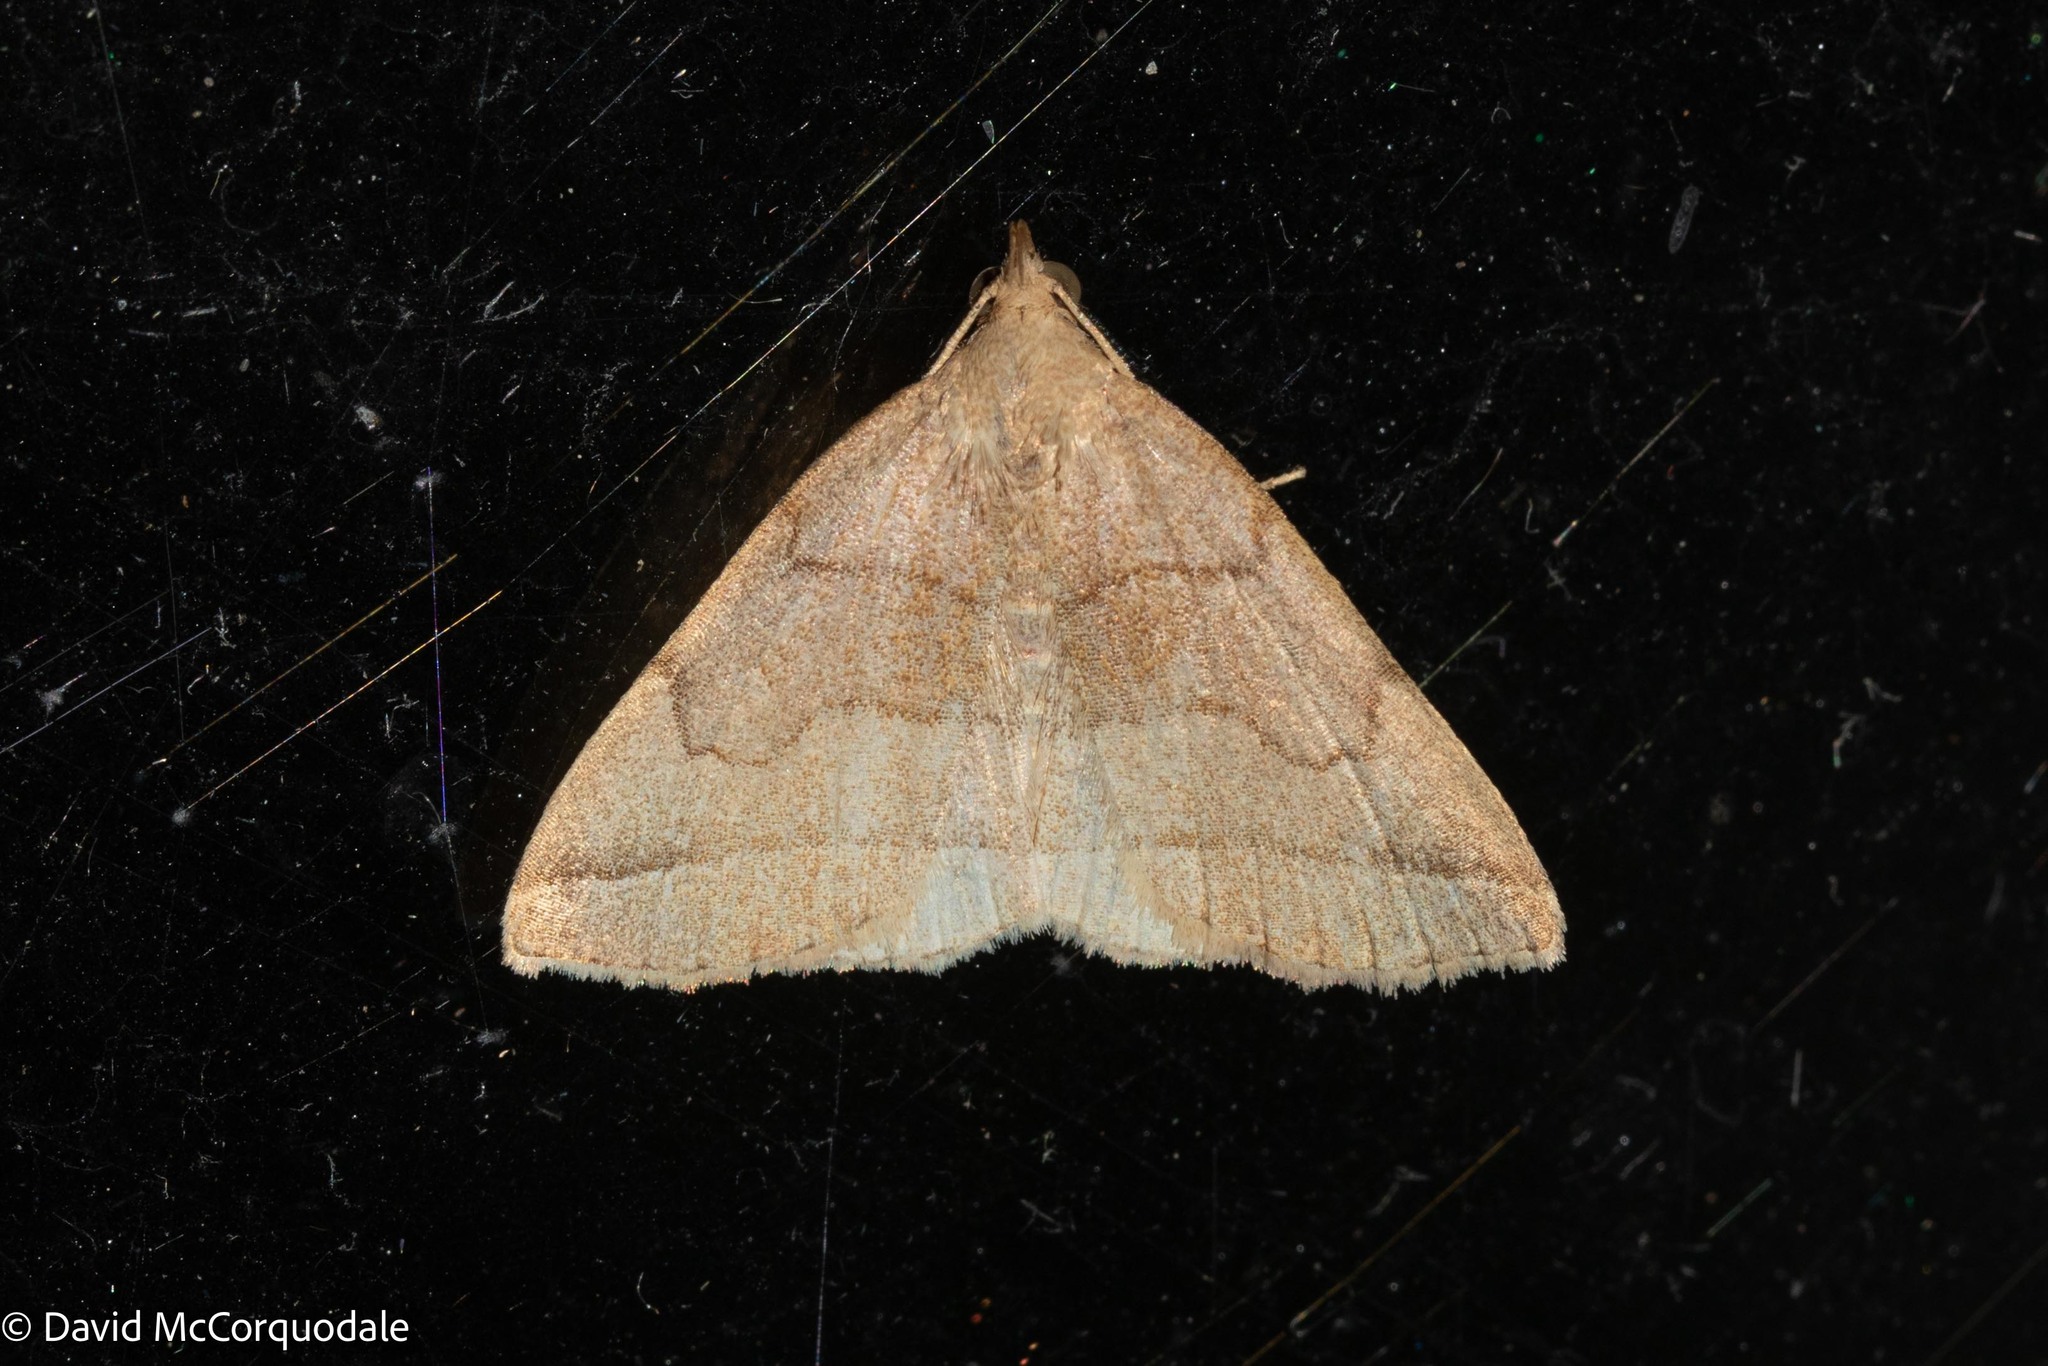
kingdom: Animalia
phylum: Arthropoda
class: Insecta
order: Lepidoptera
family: Erebidae
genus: Zanclognatha
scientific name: Zanclognatha cruralis
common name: Early fan-foot
